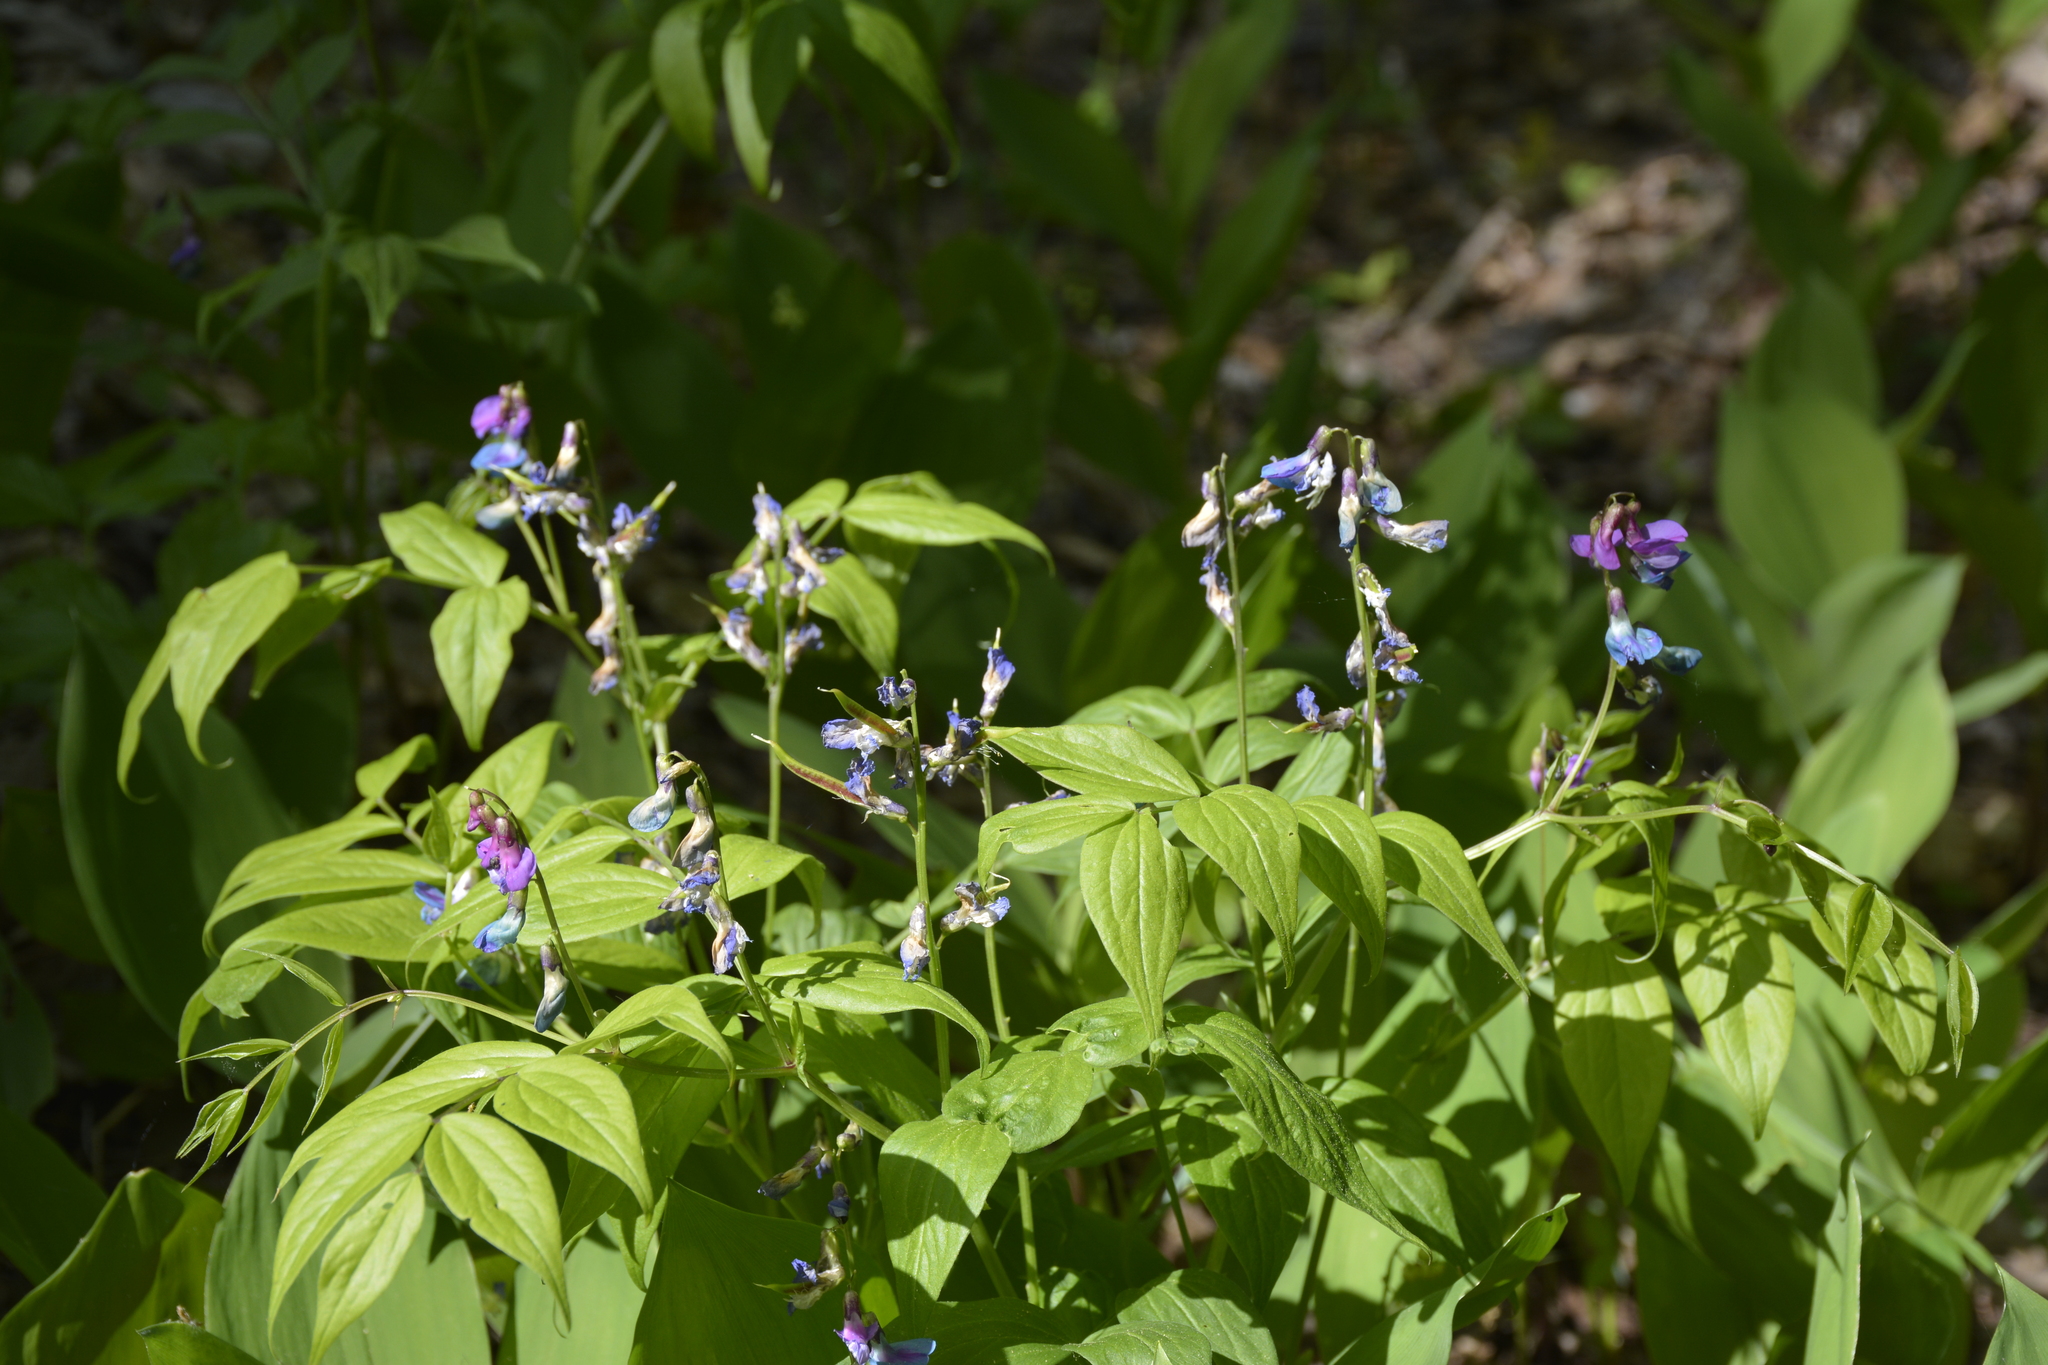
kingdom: Plantae
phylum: Tracheophyta
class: Magnoliopsida
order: Fabales
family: Fabaceae
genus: Lathyrus
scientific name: Lathyrus vernus
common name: Spring pea
